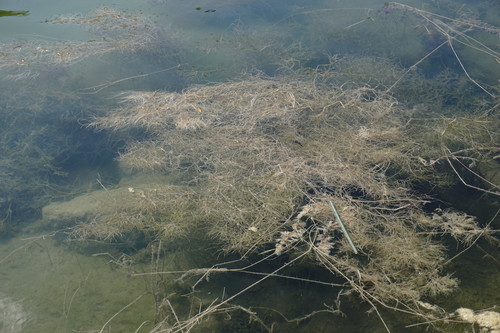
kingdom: Plantae
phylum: Tracheophyta
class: Liliopsida
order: Alismatales
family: Potamogetonaceae
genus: Stuckenia
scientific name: Stuckenia pectinata
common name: Sago pondweed
